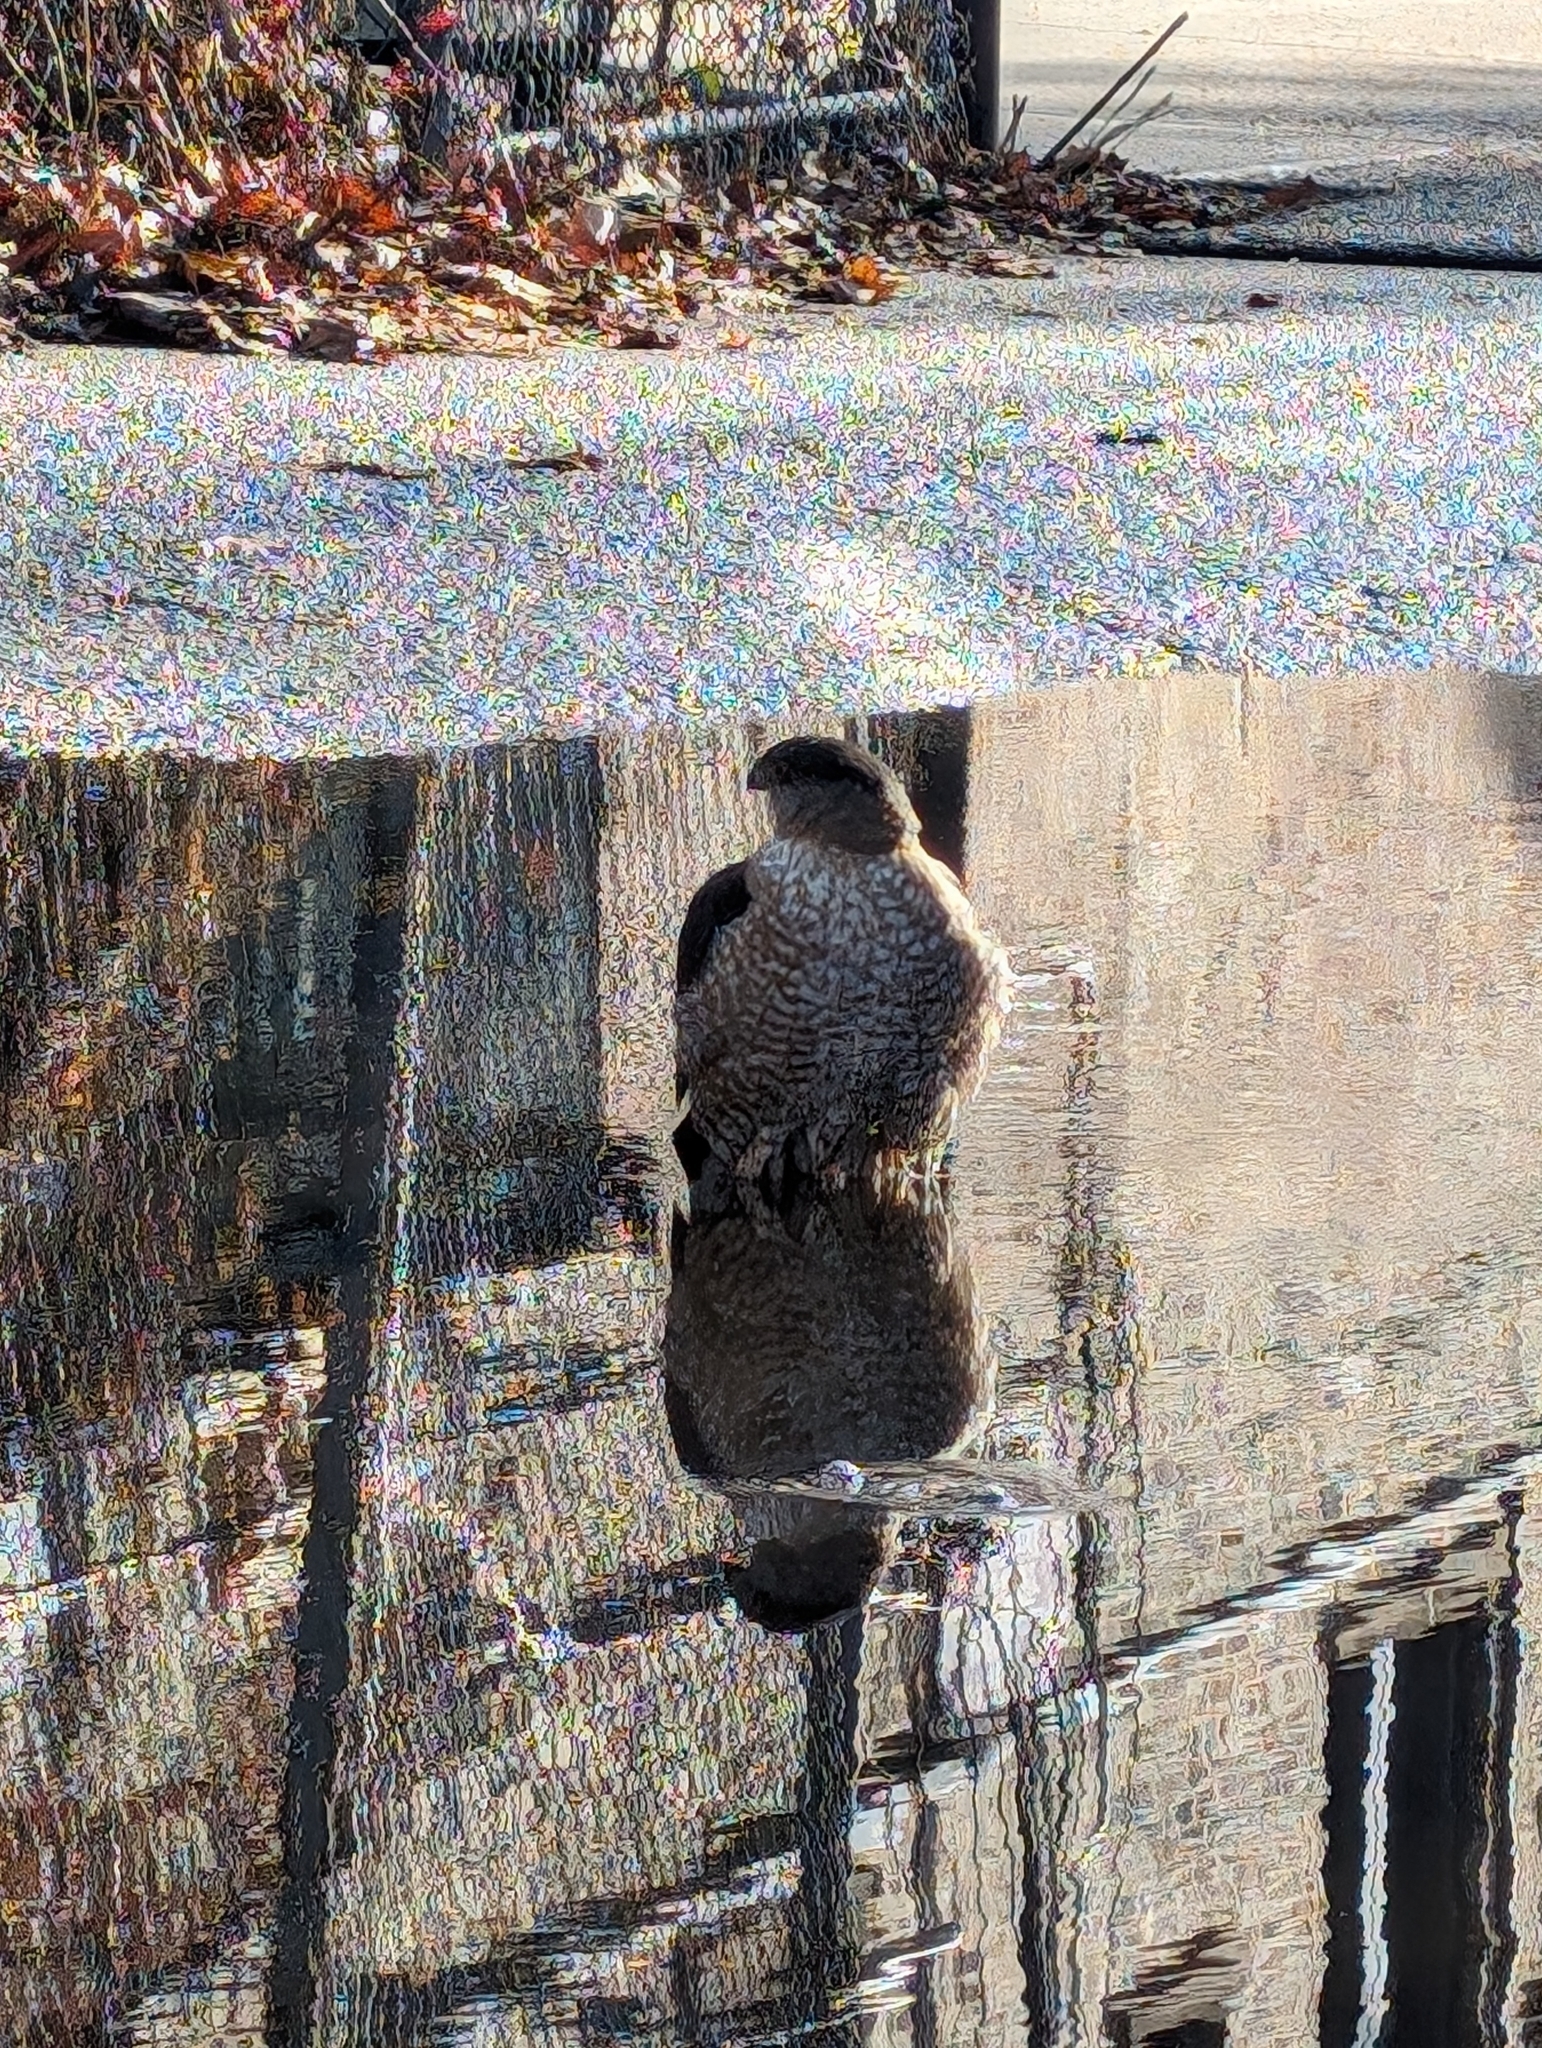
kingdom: Animalia
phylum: Chordata
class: Aves
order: Accipitriformes
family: Accipitridae
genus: Accipiter
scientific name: Accipiter cooperii
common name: Cooper's hawk
